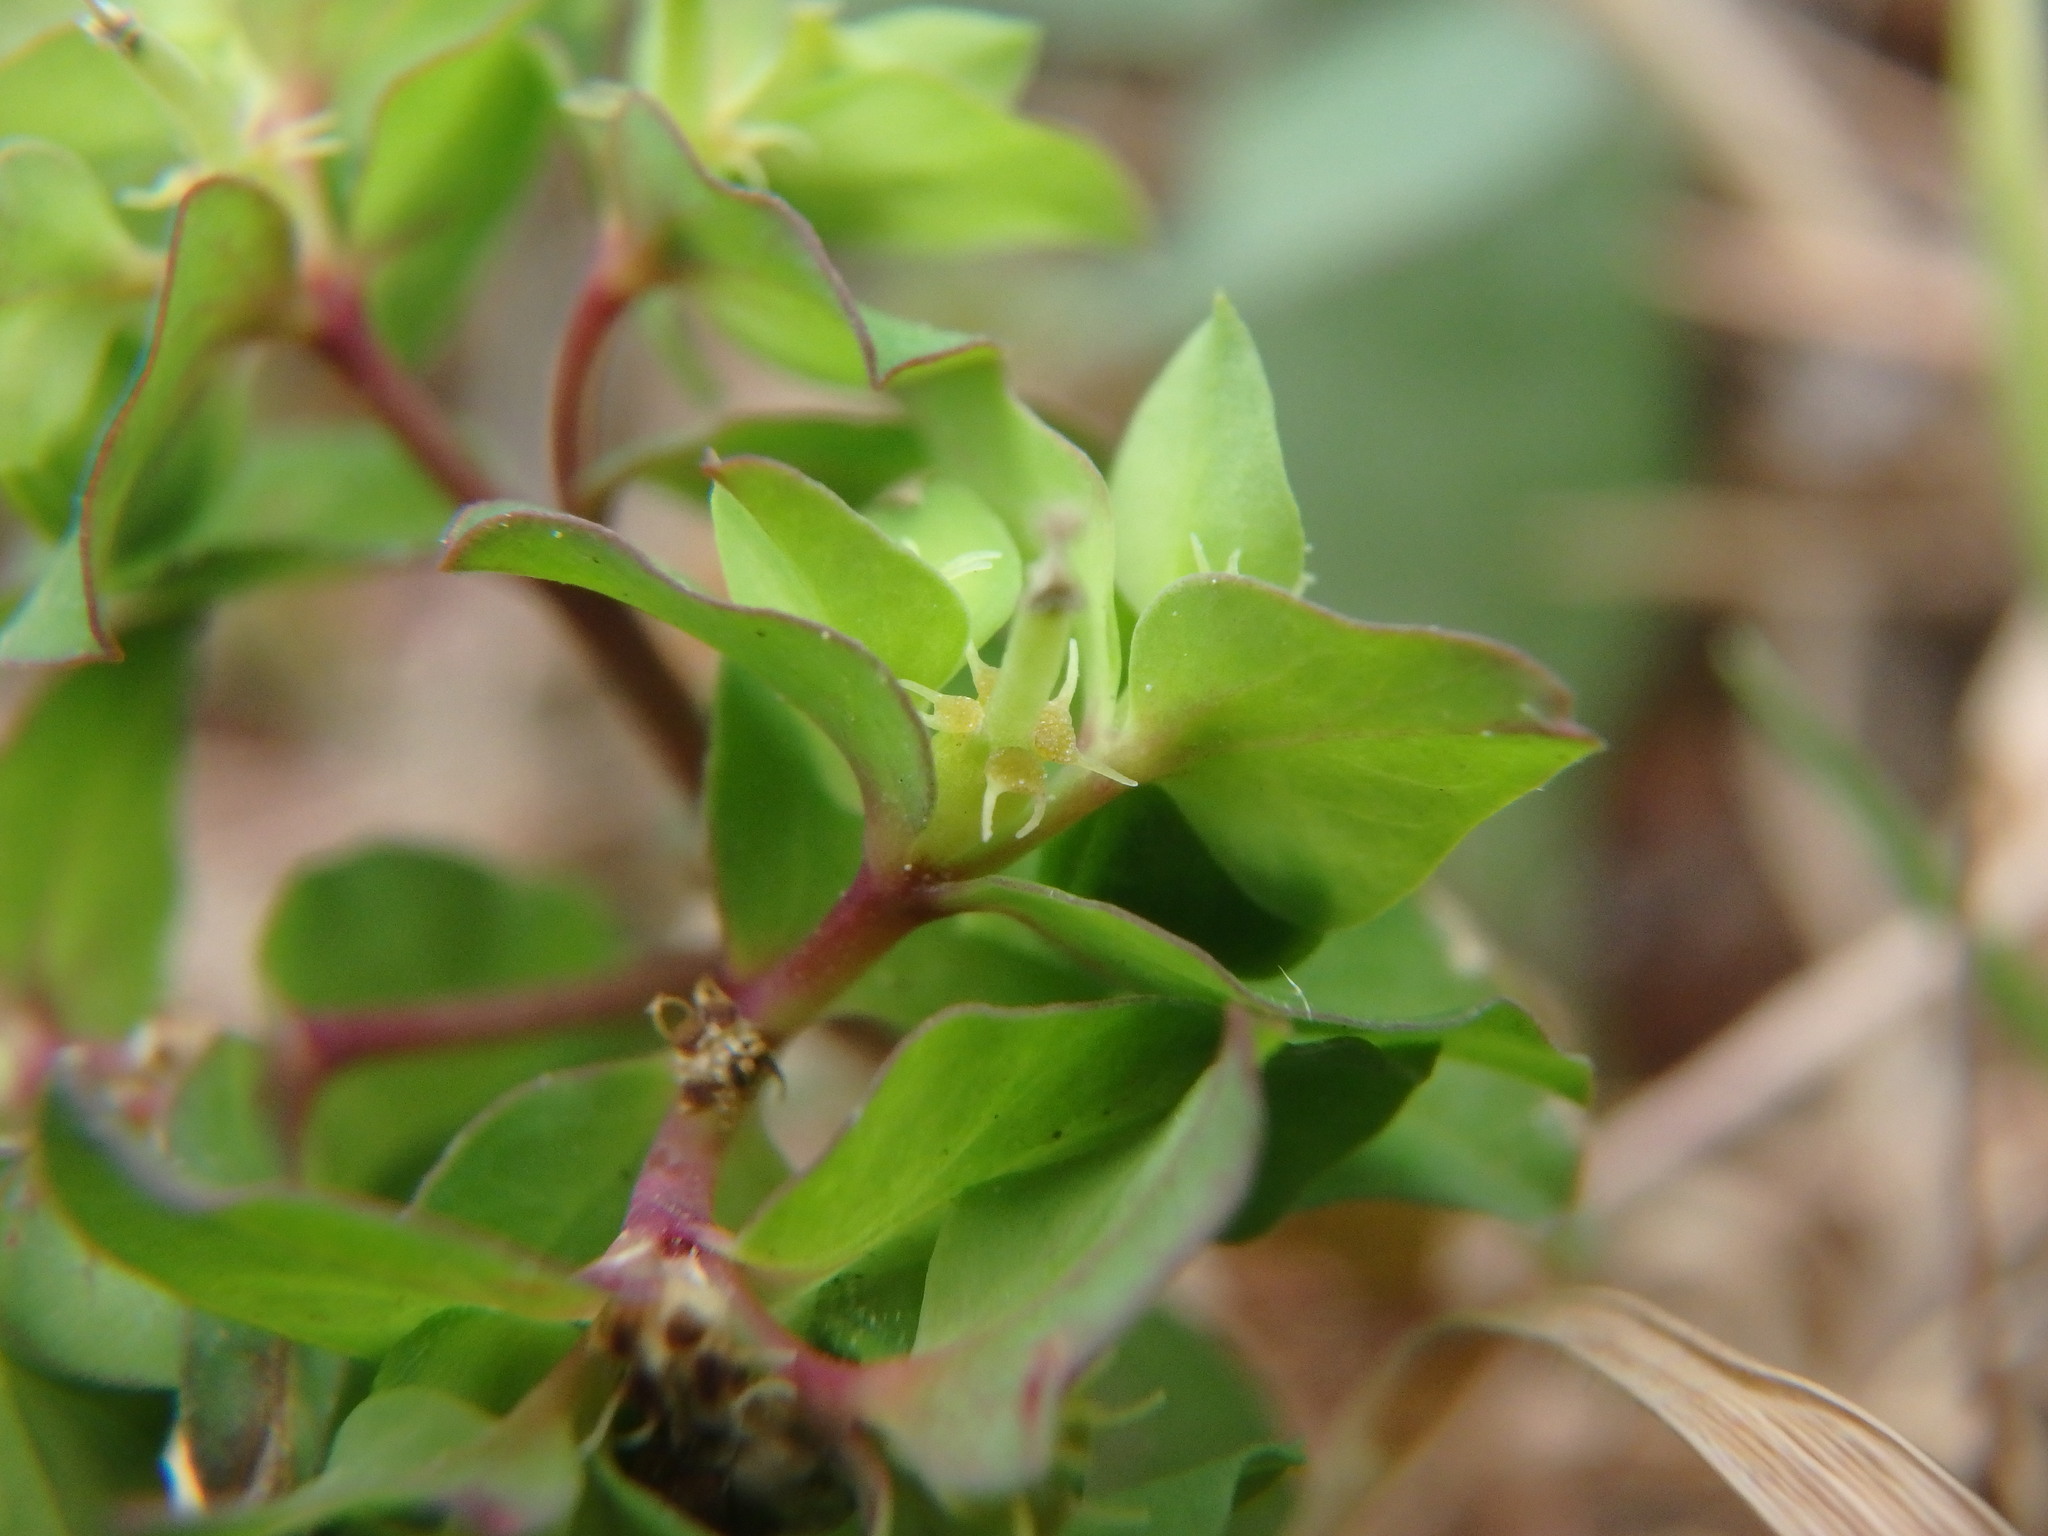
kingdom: Plantae
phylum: Tracheophyta
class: Magnoliopsida
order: Malpighiales
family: Euphorbiaceae
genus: Euphorbia
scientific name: Euphorbia peplus
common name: Petty spurge
